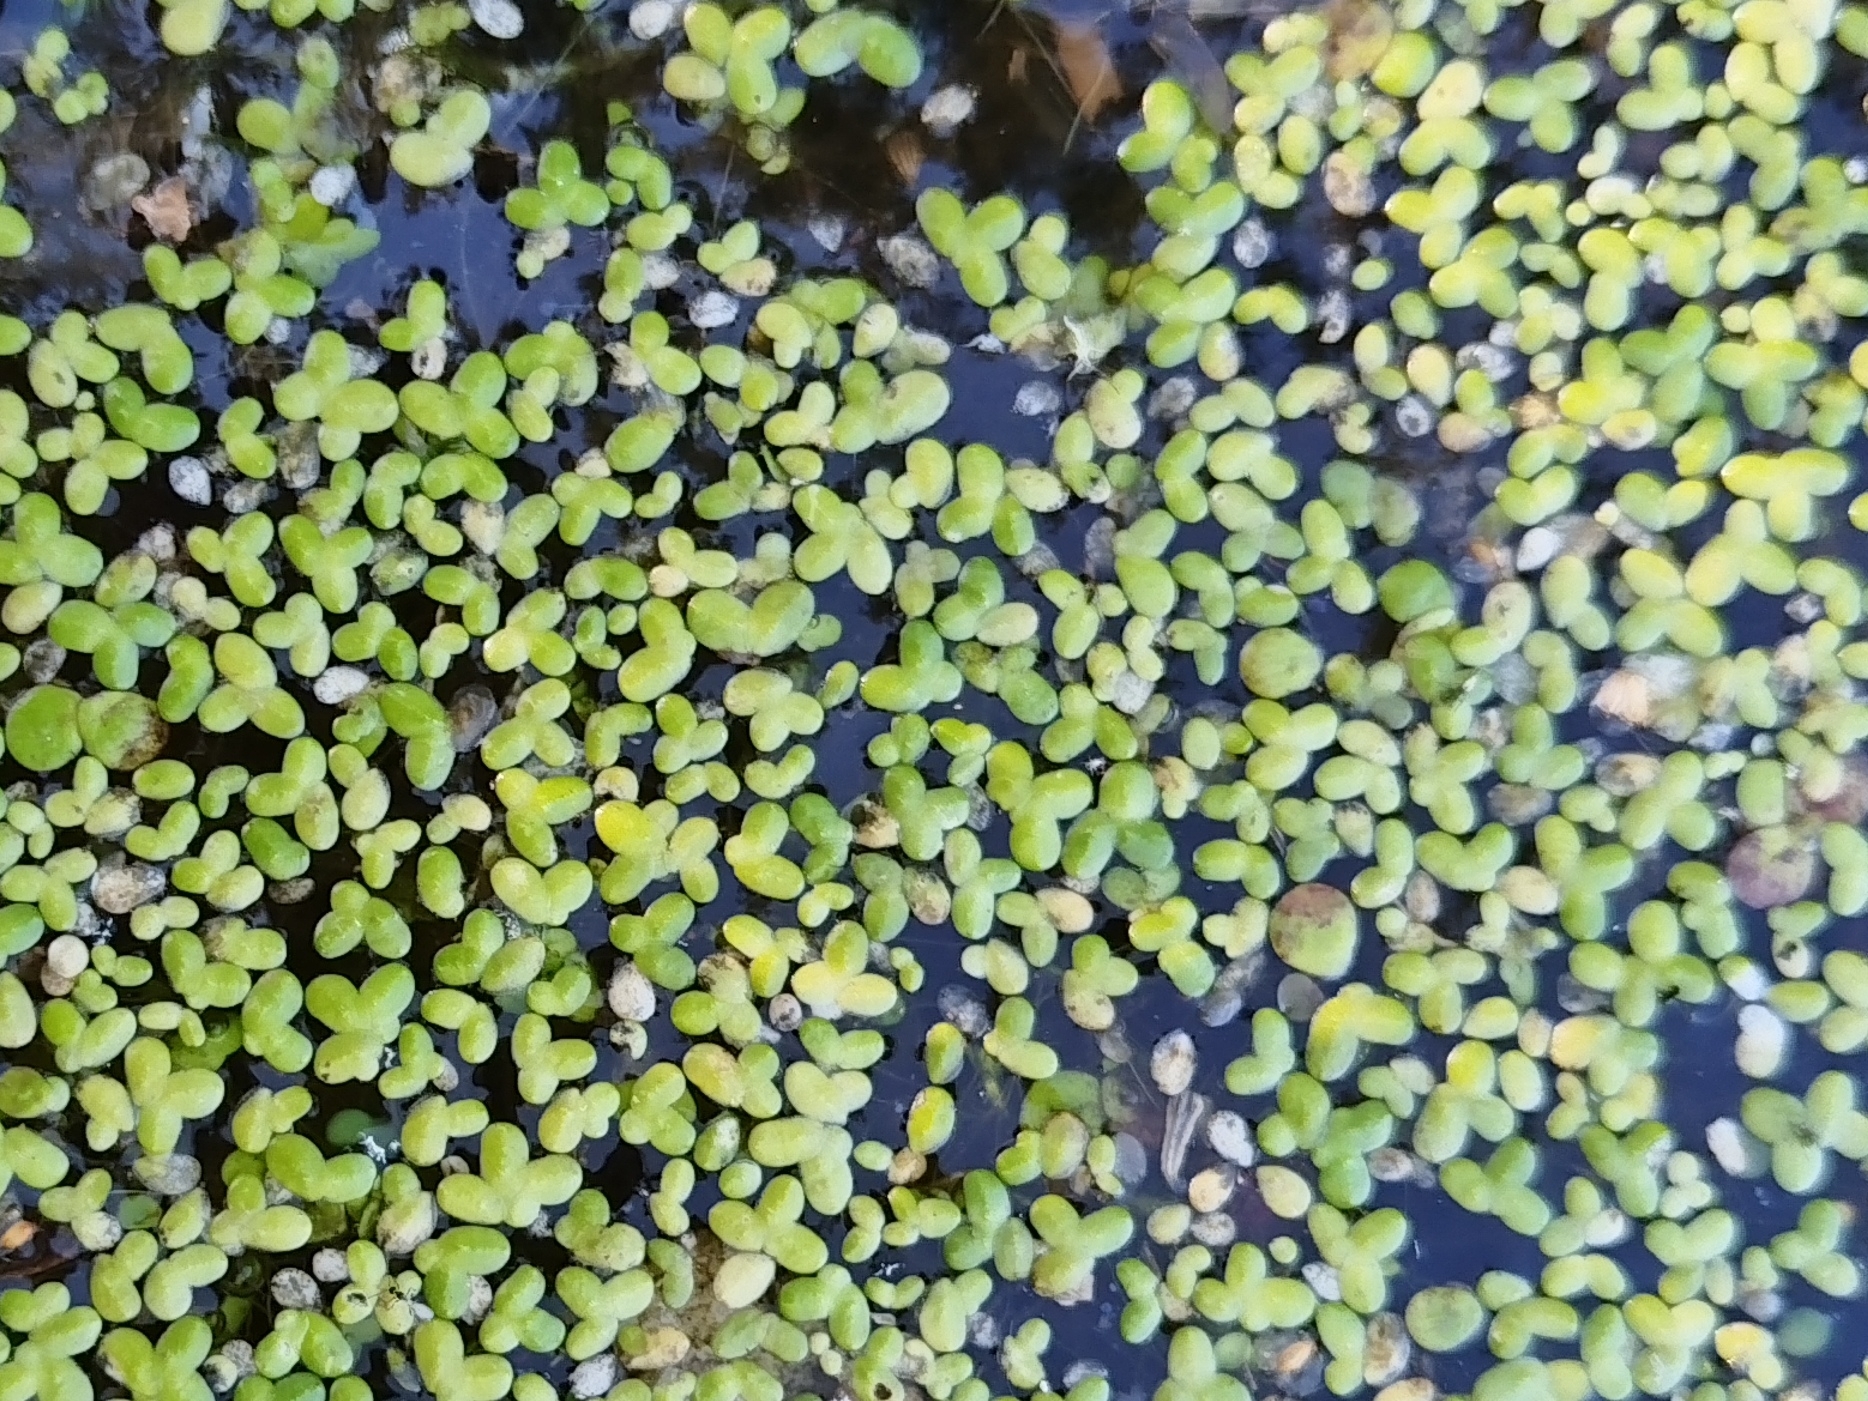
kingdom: Plantae
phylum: Tracheophyta
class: Liliopsida
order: Alismatales
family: Araceae
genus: Lemna
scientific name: Lemna turionifera
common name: Perennial duckweed
